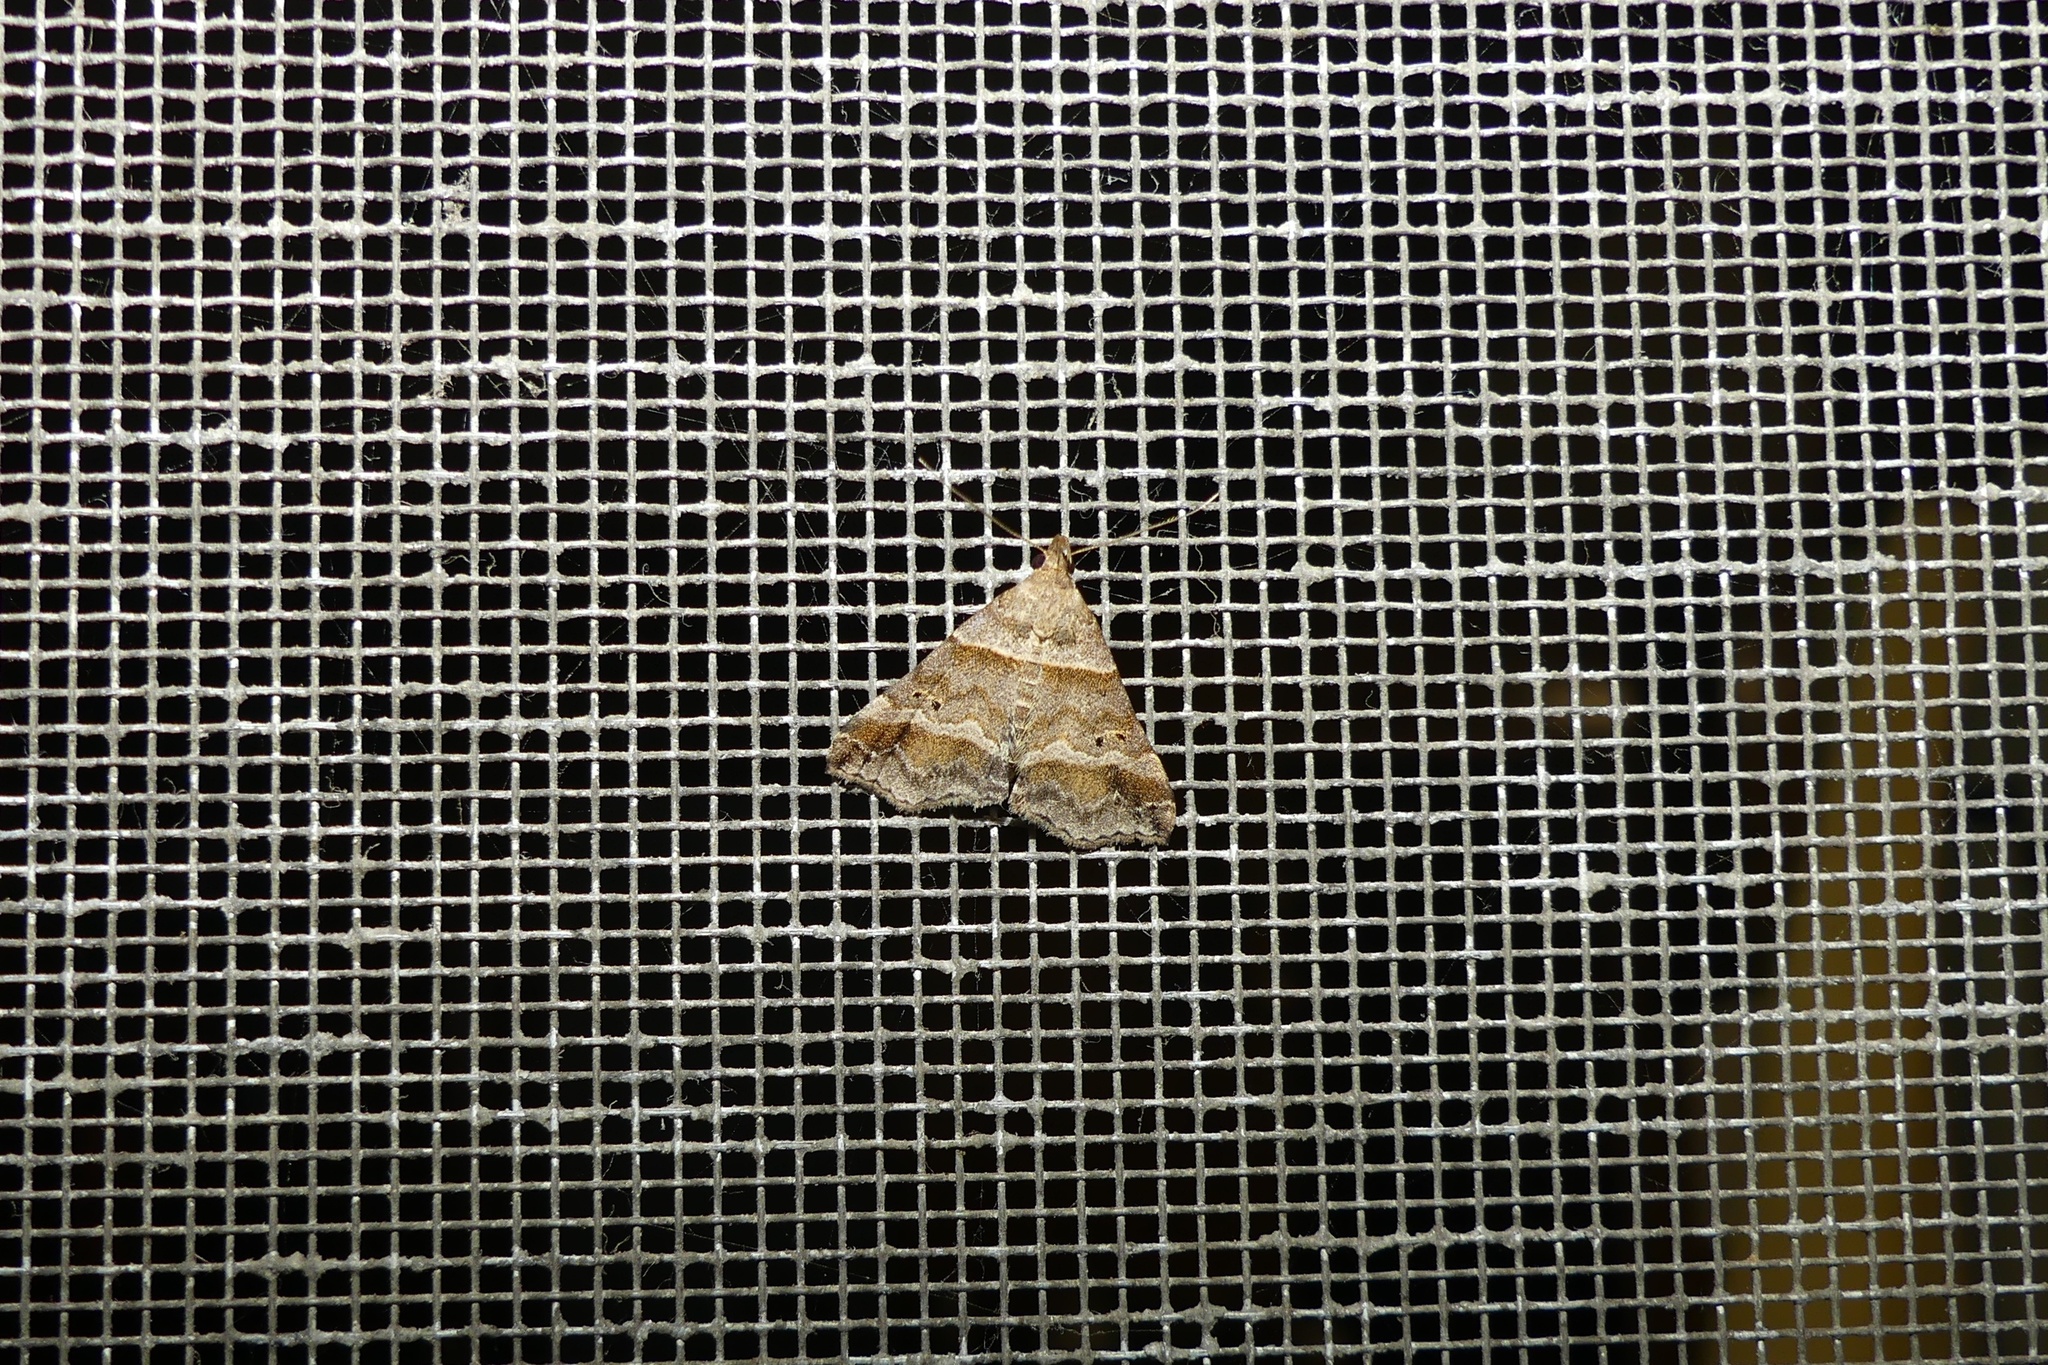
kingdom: Animalia
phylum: Arthropoda
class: Insecta
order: Lepidoptera
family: Erebidae
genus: Phaeolita
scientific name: Phaeolita pyramusalis
